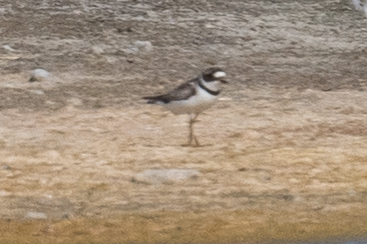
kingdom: Animalia
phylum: Chordata
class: Aves
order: Charadriiformes
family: Charadriidae
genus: Charadrius
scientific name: Charadrius semipalmatus
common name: Semipalmated plover
